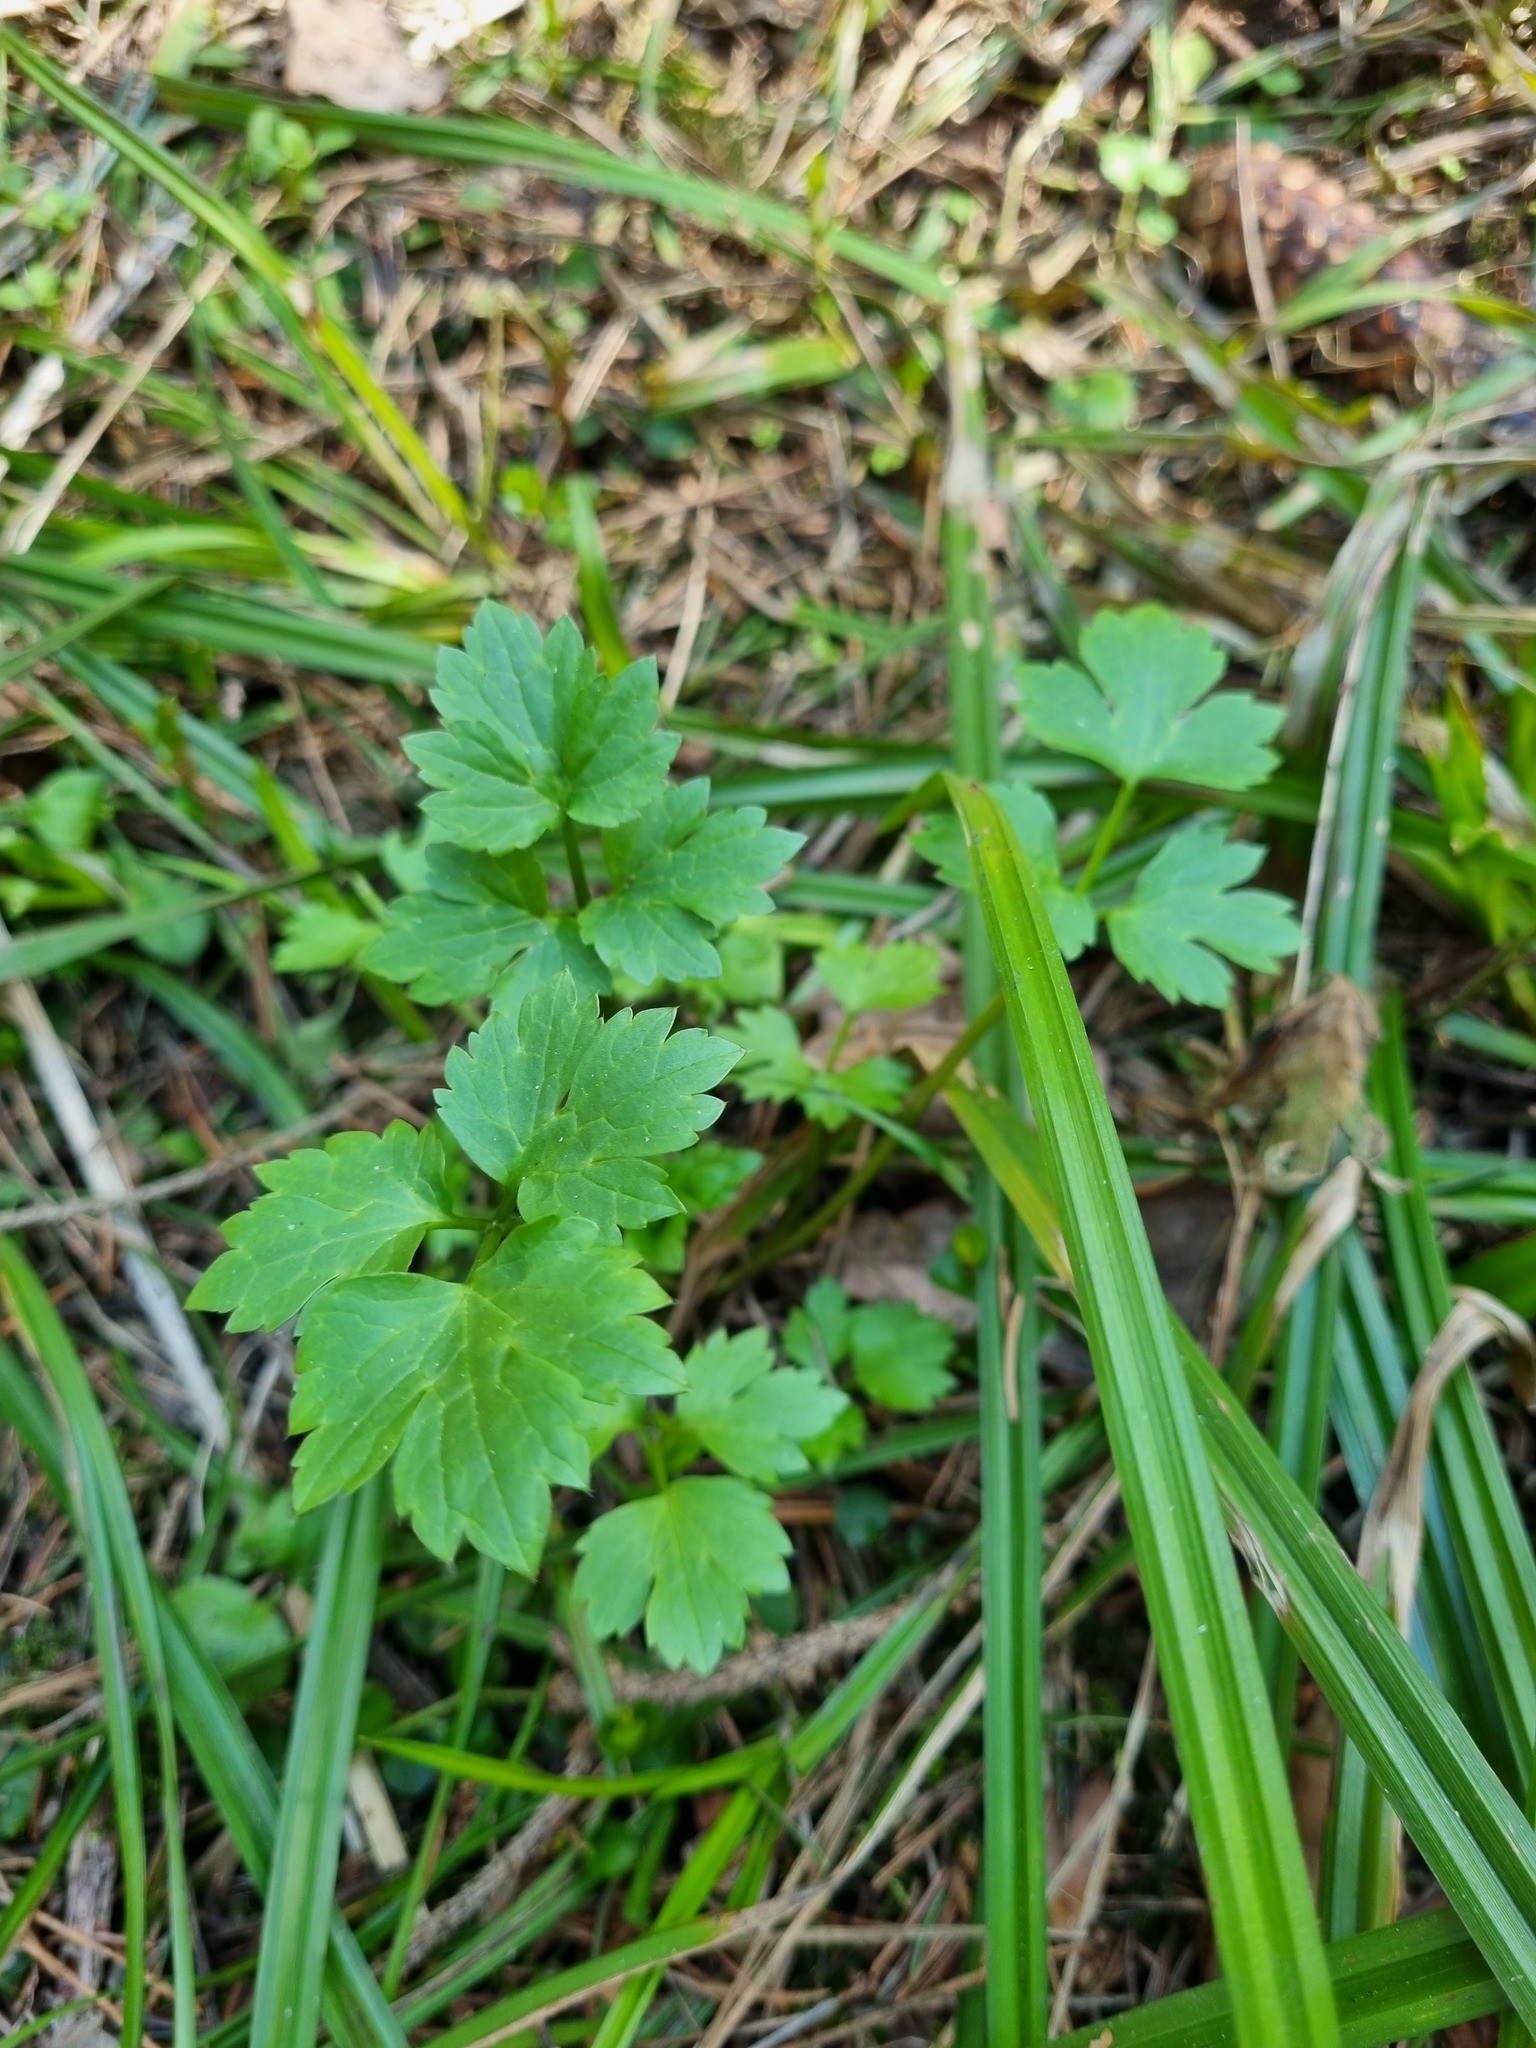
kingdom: Plantae
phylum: Tracheophyta
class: Magnoliopsida
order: Ranunculales
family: Ranunculaceae
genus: Ranunculus
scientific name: Ranunculus repens
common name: Creeping buttercup
